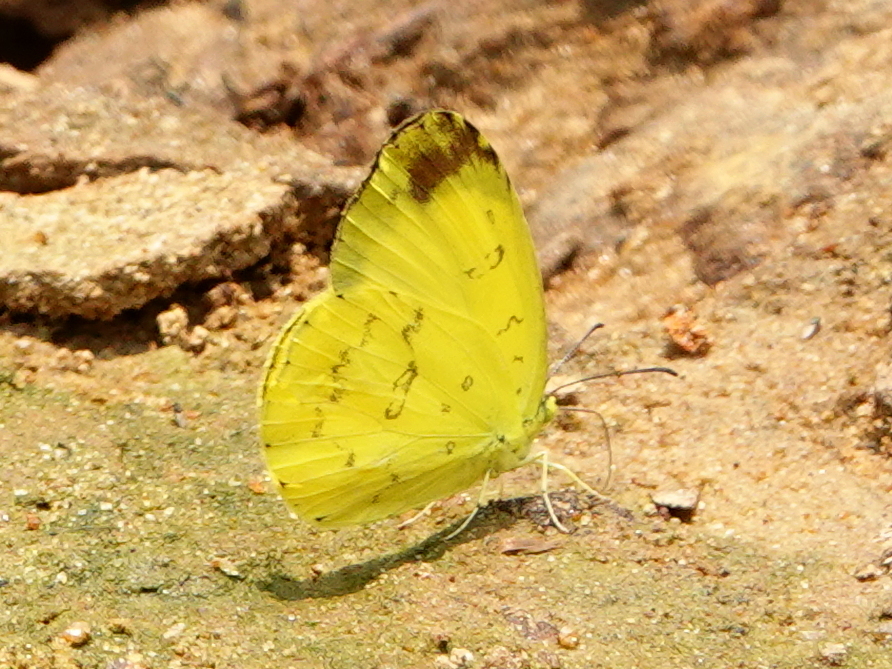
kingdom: Animalia
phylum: Arthropoda
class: Insecta
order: Lepidoptera
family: Pieridae
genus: Eurema
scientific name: Eurema blanda
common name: Three-spot grass yellow
